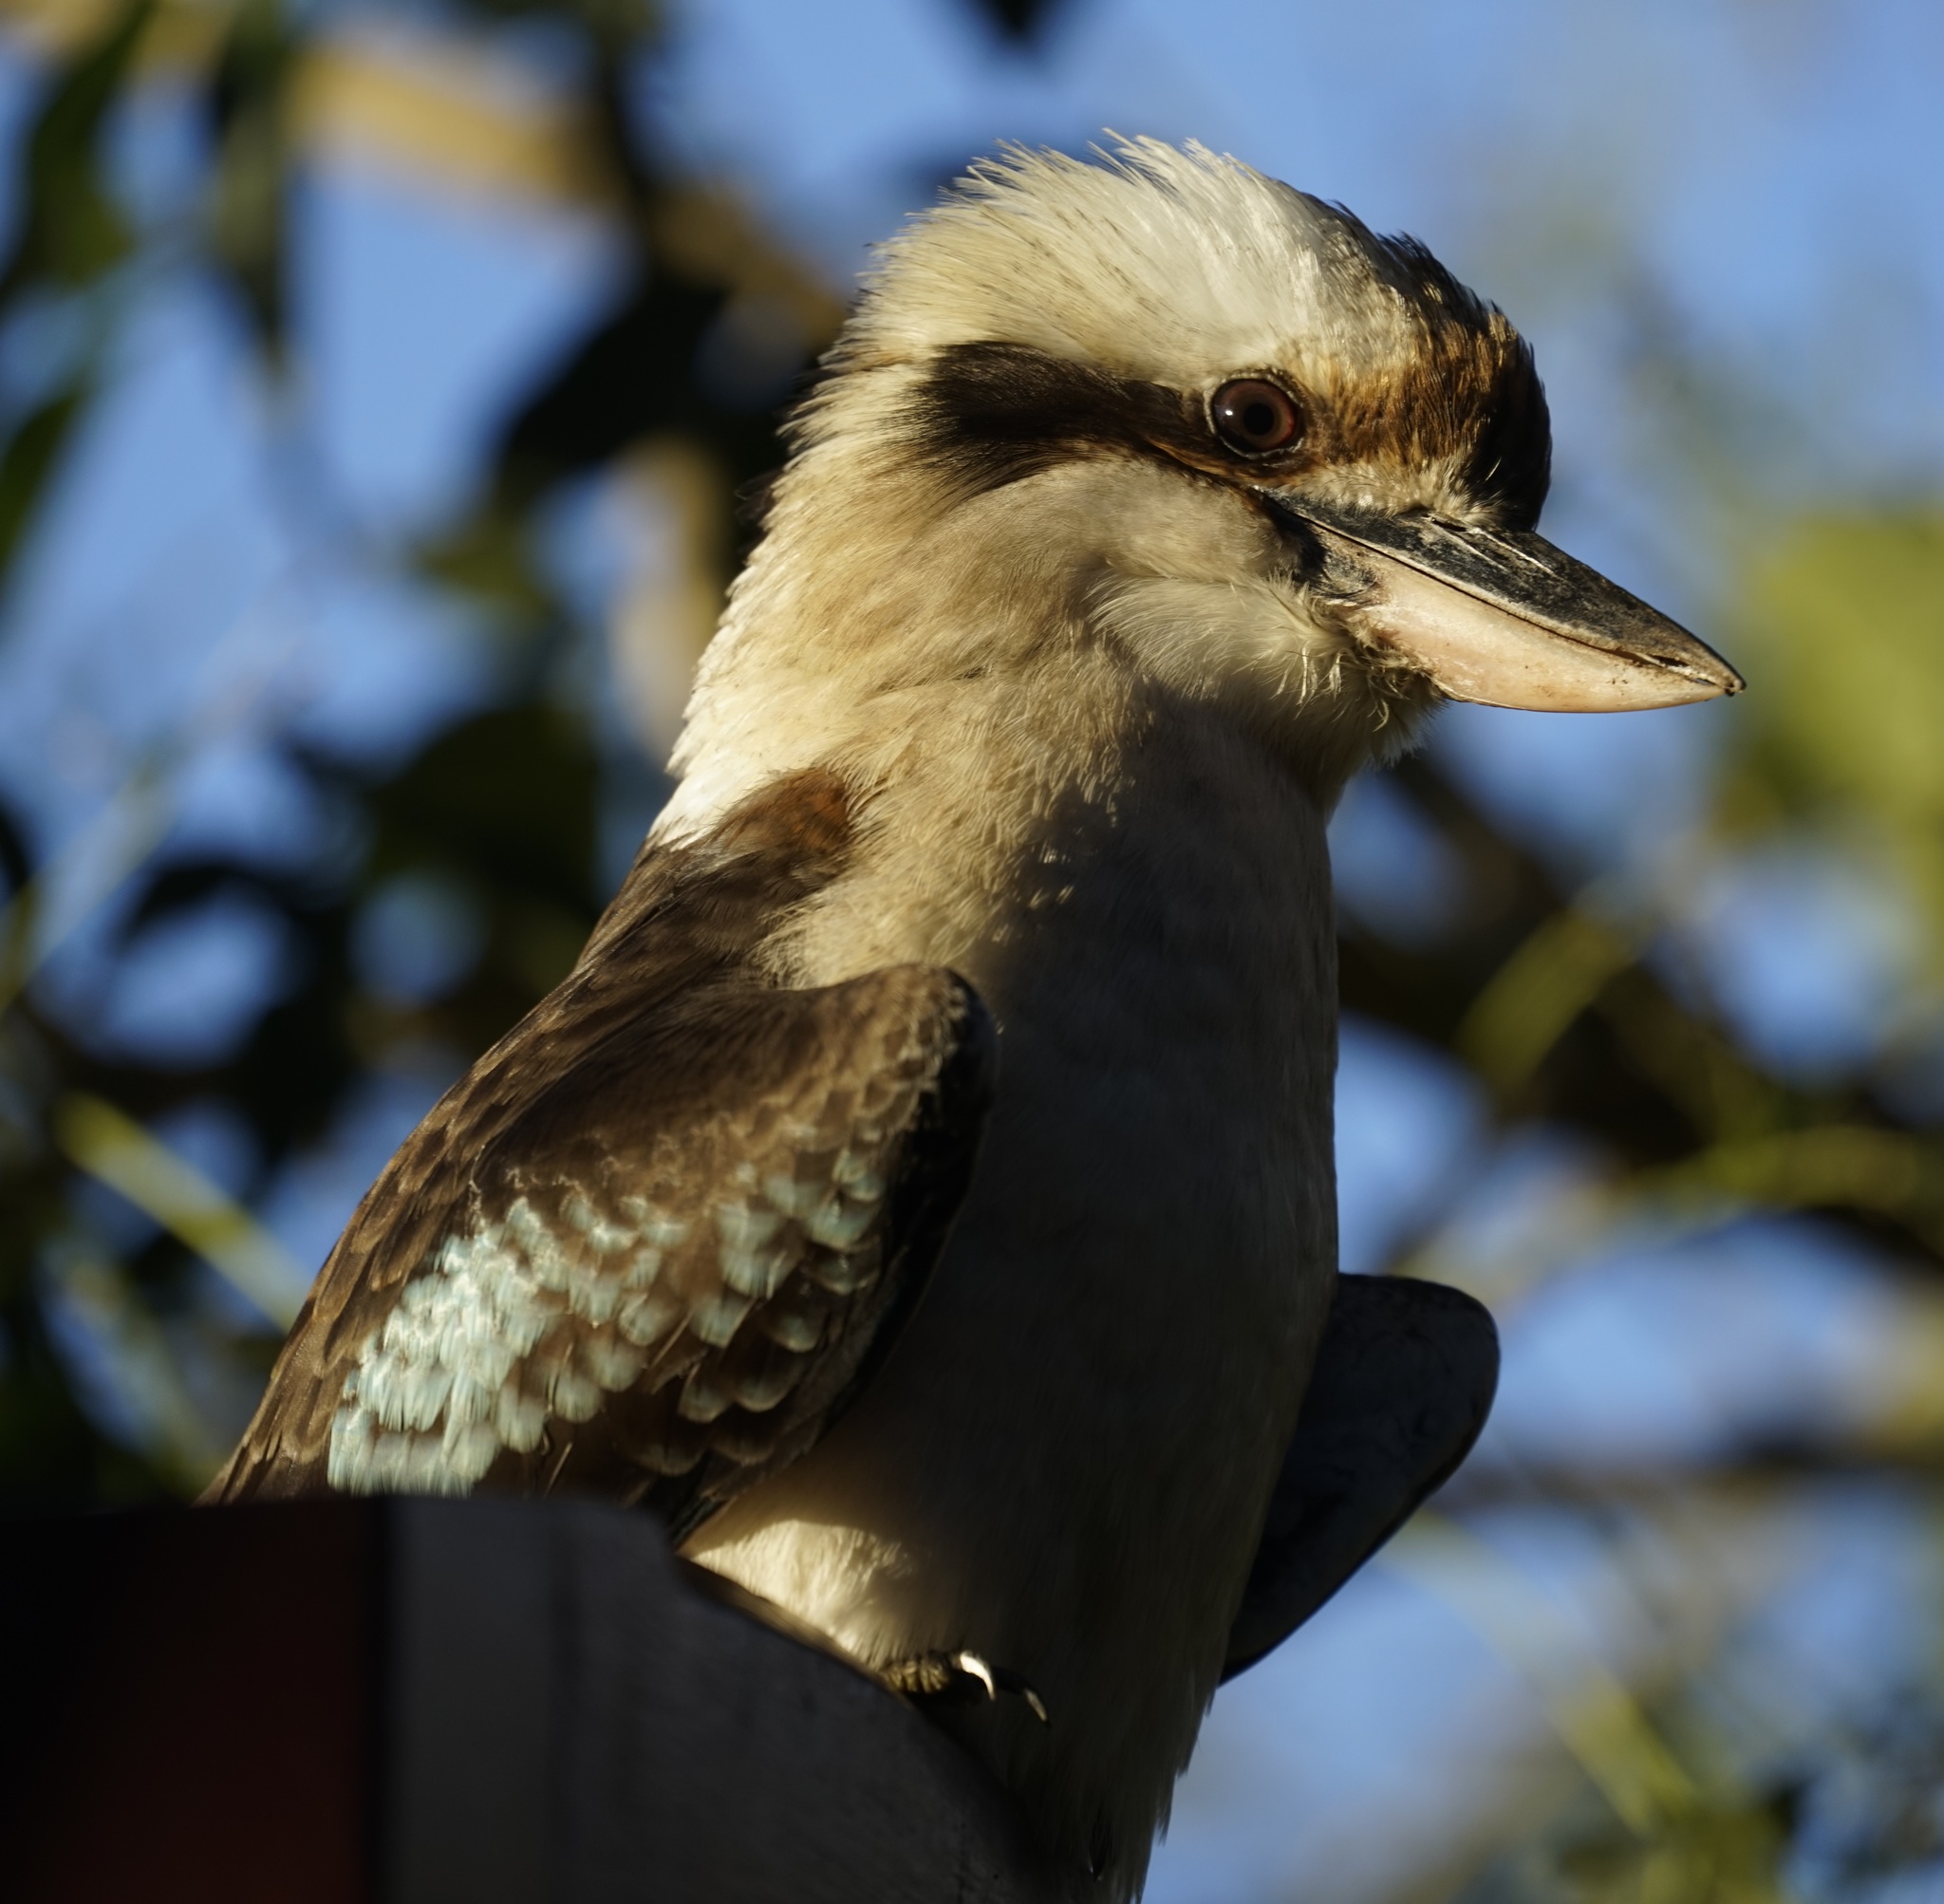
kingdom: Animalia
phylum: Chordata
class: Aves
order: Coraciiformes
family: Alcedinidae
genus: Dacelo
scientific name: Dacelo novaeguineae
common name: Laughing kookaburra
